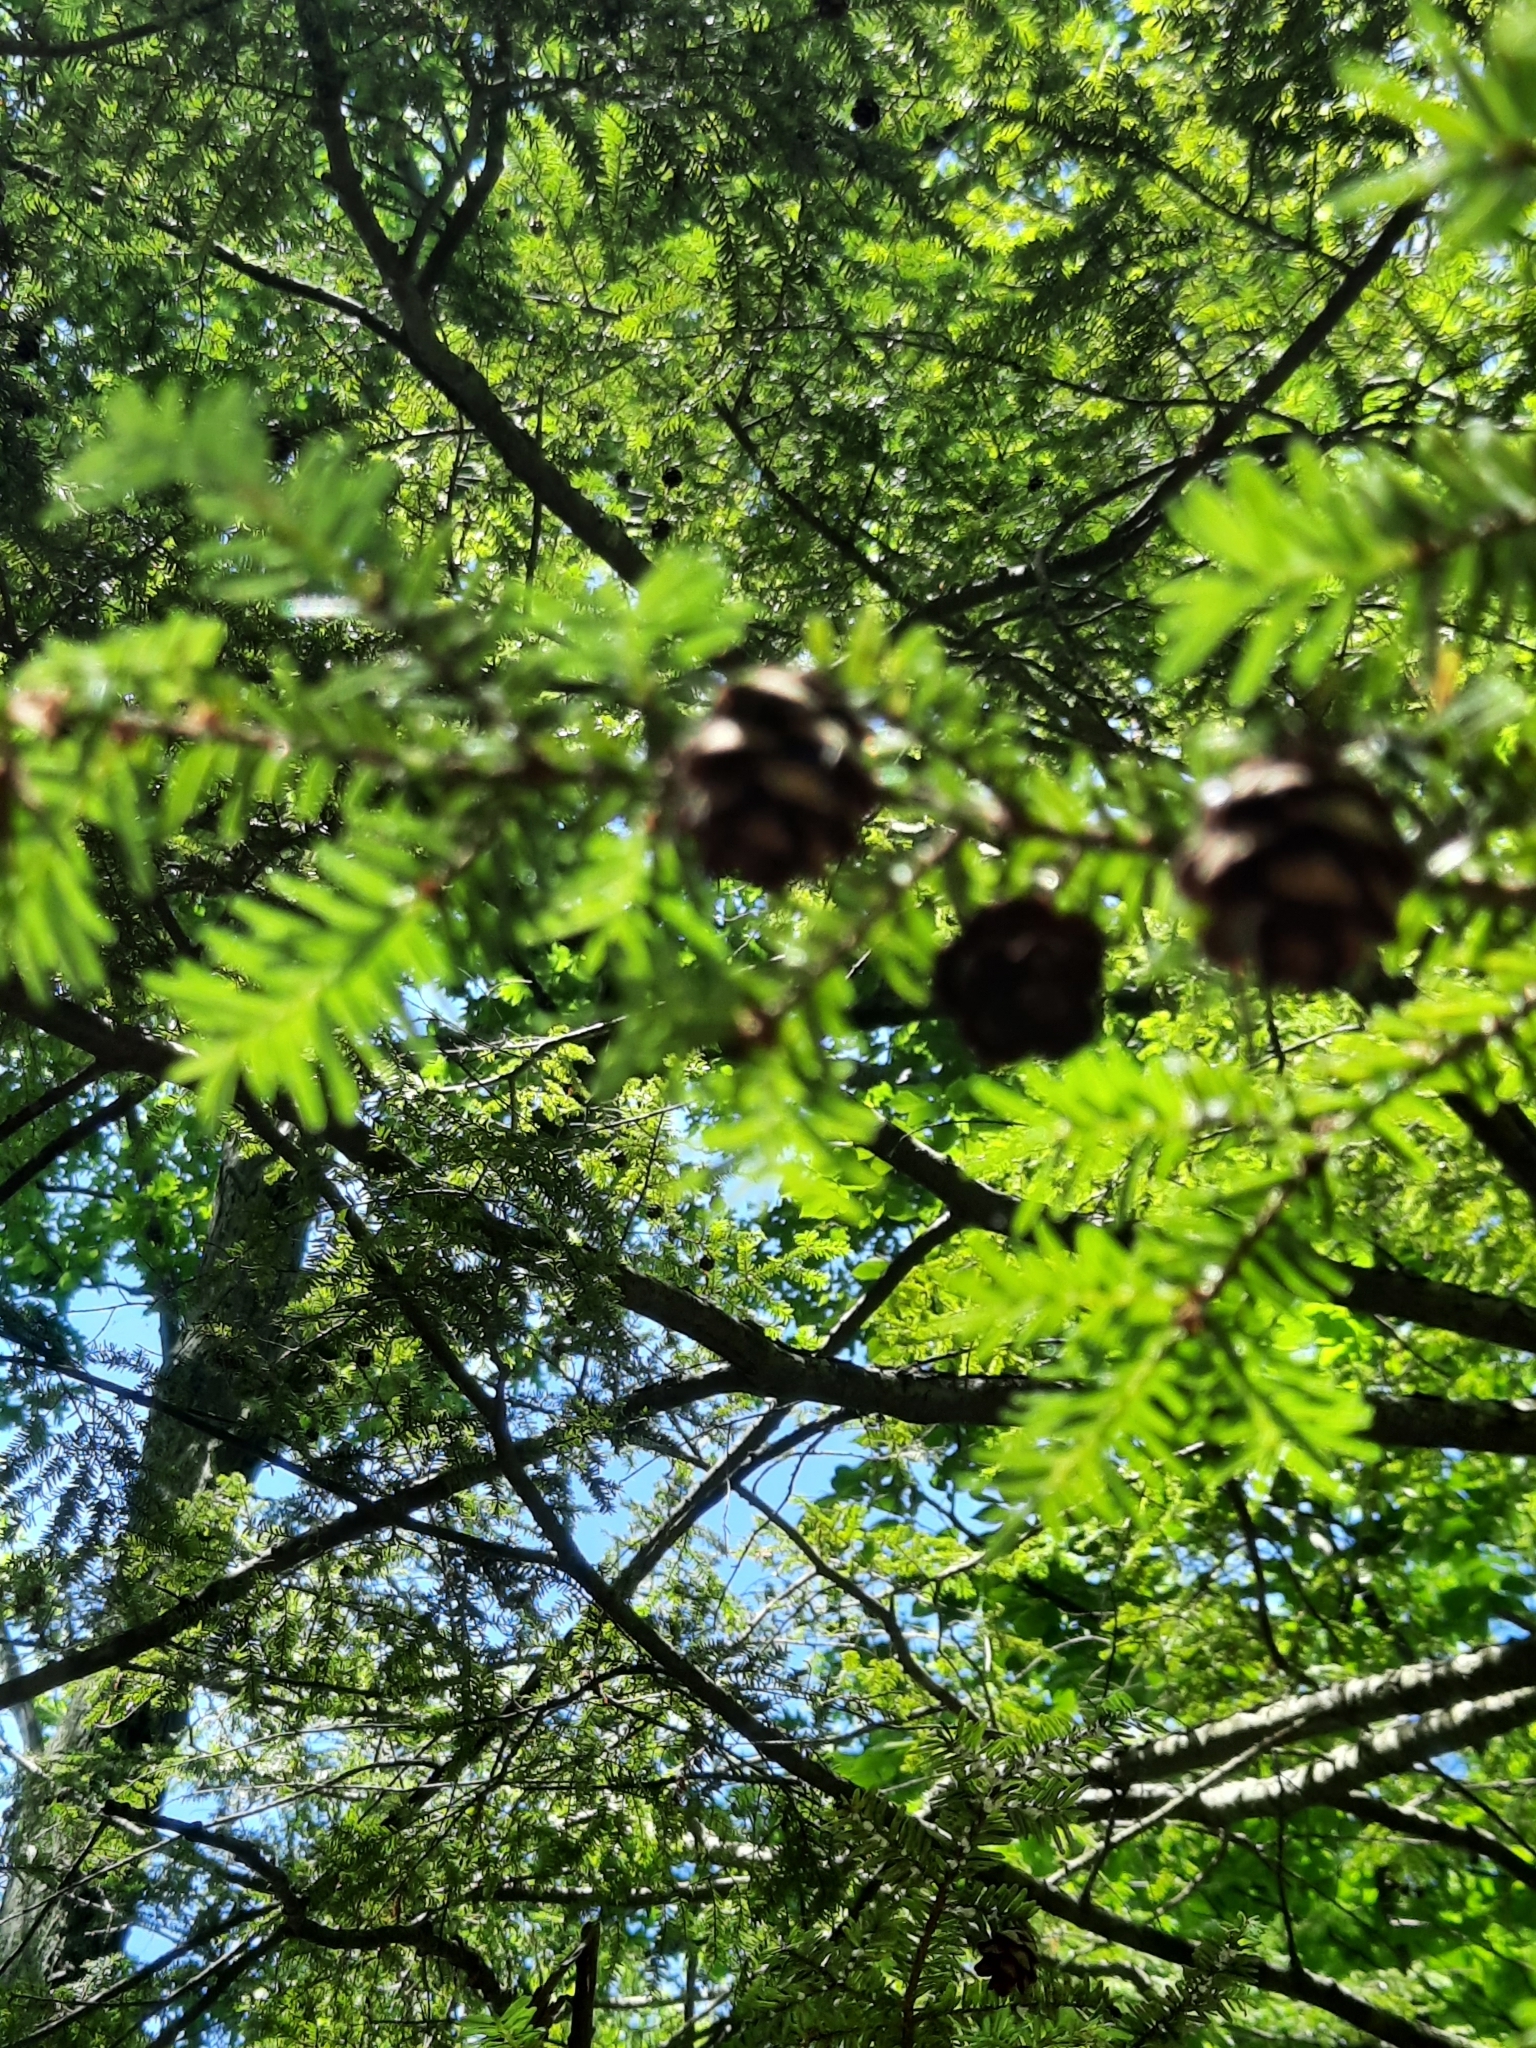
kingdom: Plantae
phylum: Tracheophyta
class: Pinopsida
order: Pinales
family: Pinaceae
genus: Tsuga
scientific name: Tsuga canadensis
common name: Eastern hemlock
